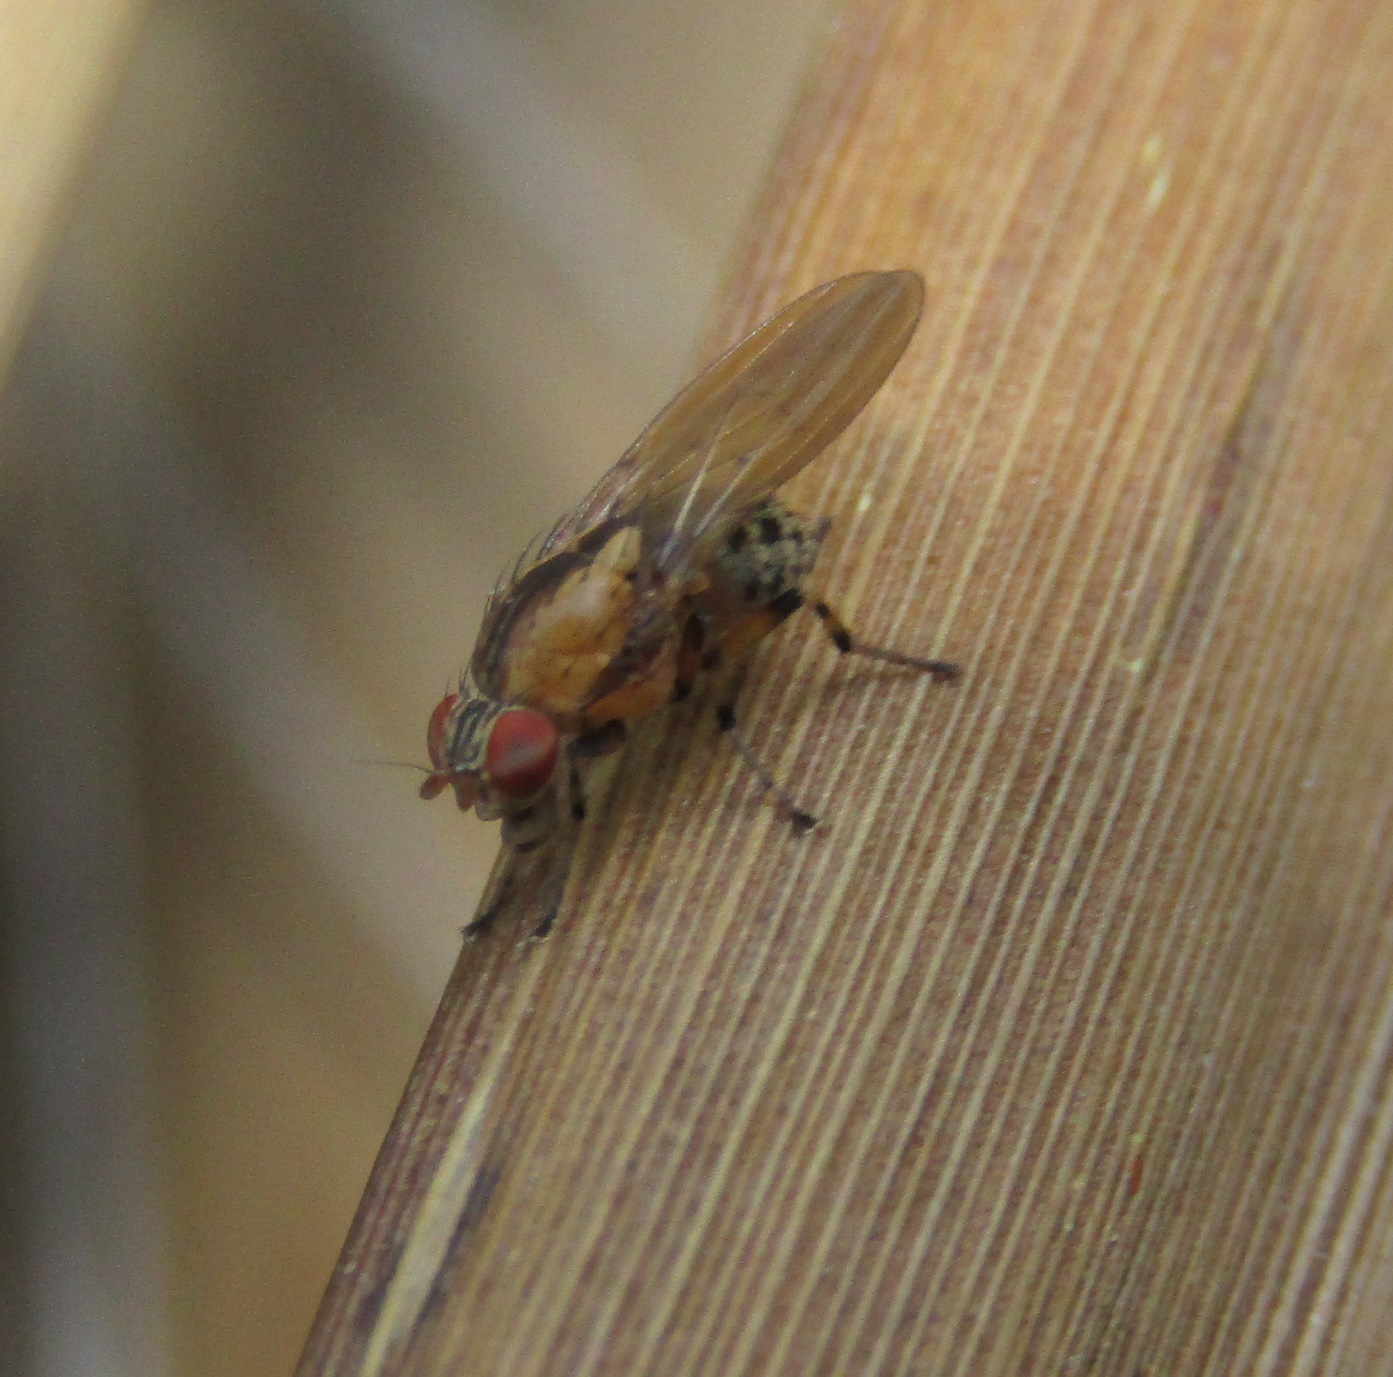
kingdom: Animalia
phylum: Arthropoda
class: Insecta
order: Diptera
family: Lauxaniidae
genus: Sapromyza
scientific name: Sapromyza neozelandica
